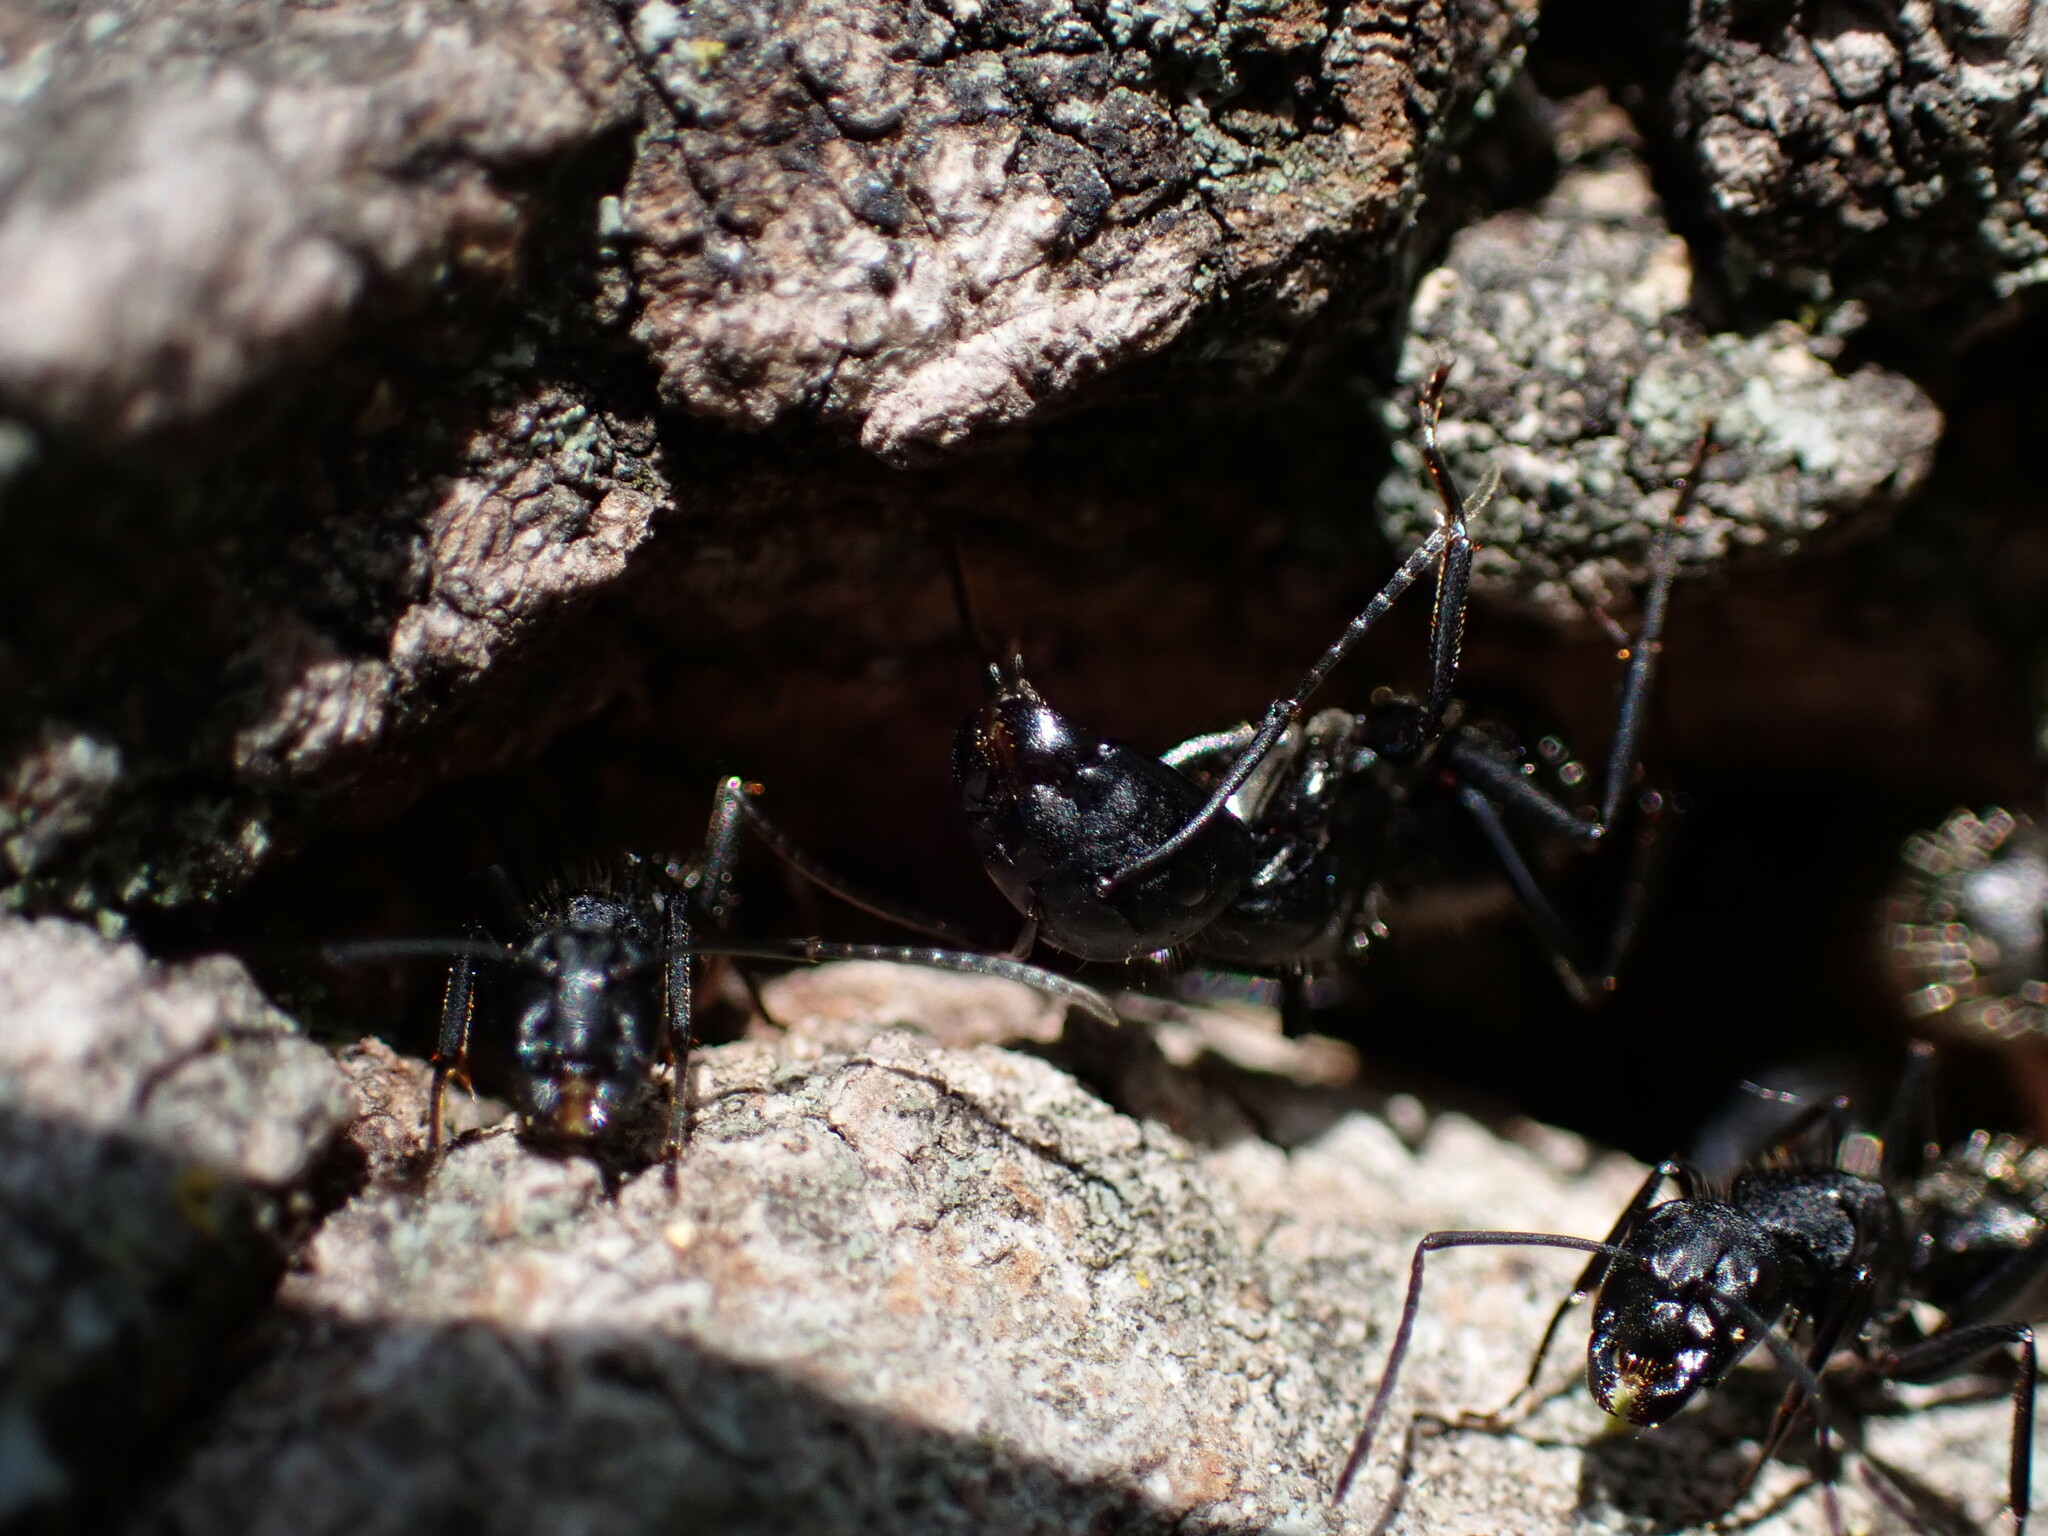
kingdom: Animalia
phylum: Arthropoda
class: Insecta
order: Hymenoptera
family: Formicidae
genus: Camponotus
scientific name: Camponotus vagus
